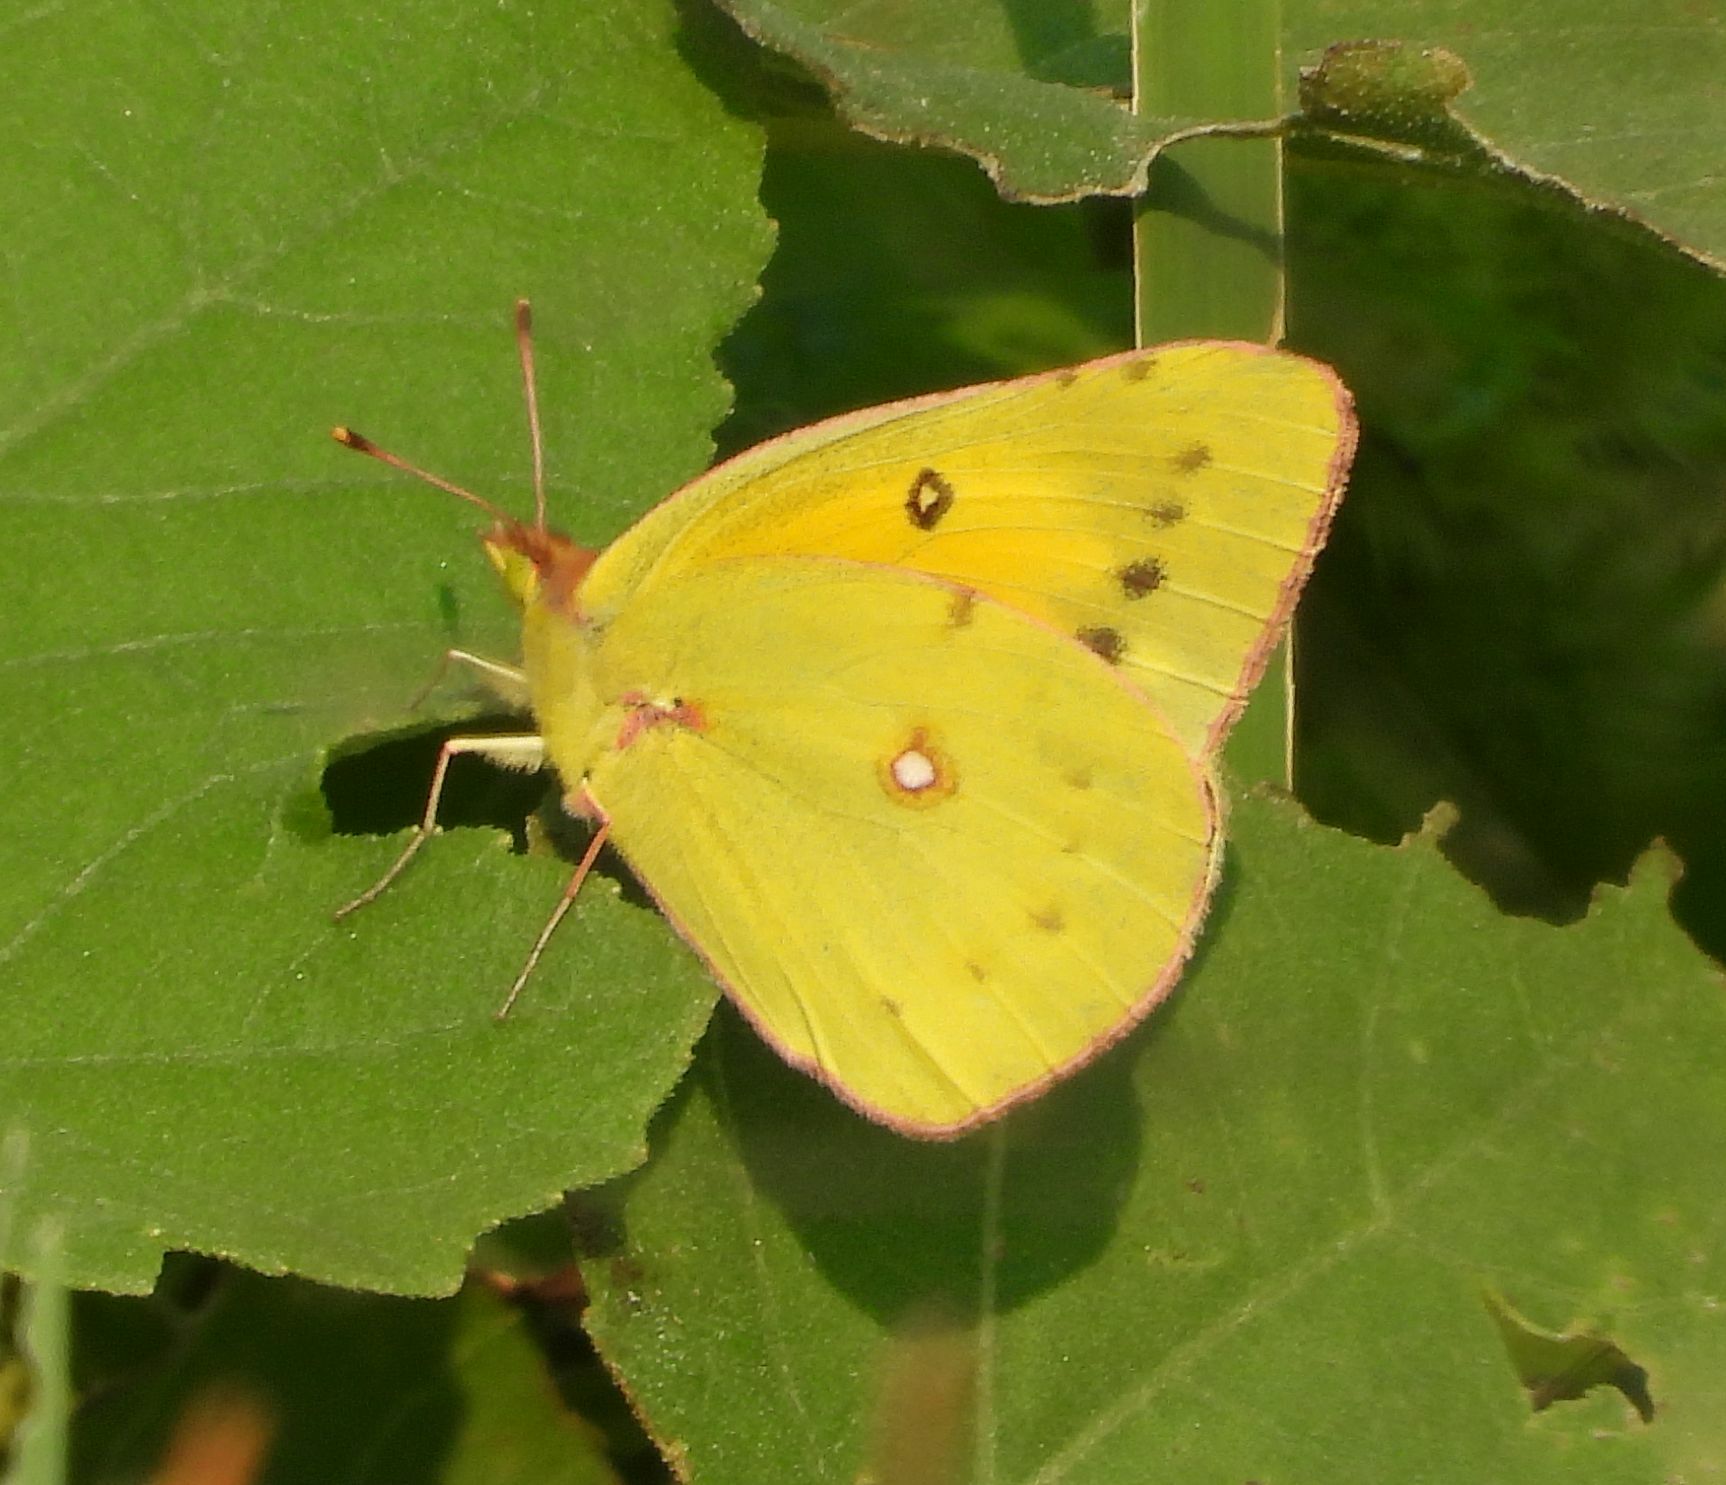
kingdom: Animalia
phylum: Arthropoda
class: Insecta
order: Lepidoptera
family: Pieridae
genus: Colias
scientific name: Colias eurytheme
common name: Alfalfa butterfly
